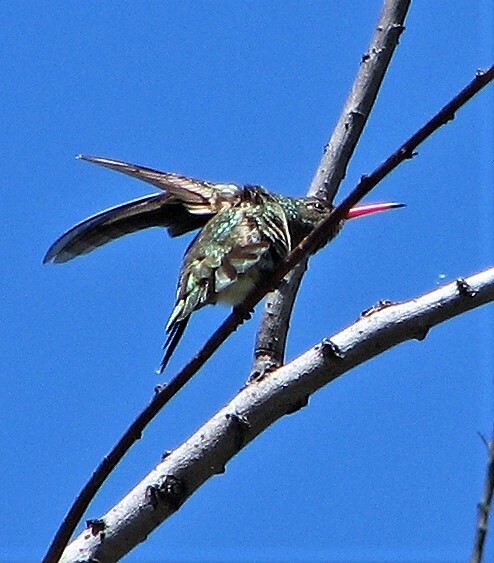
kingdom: Animalia
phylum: Chordata
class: Aves
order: Apodiformes
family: Trochilidae
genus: Chlorostilbon
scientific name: Chlorostilbon lucidus
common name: Glittering-bellied emerald
